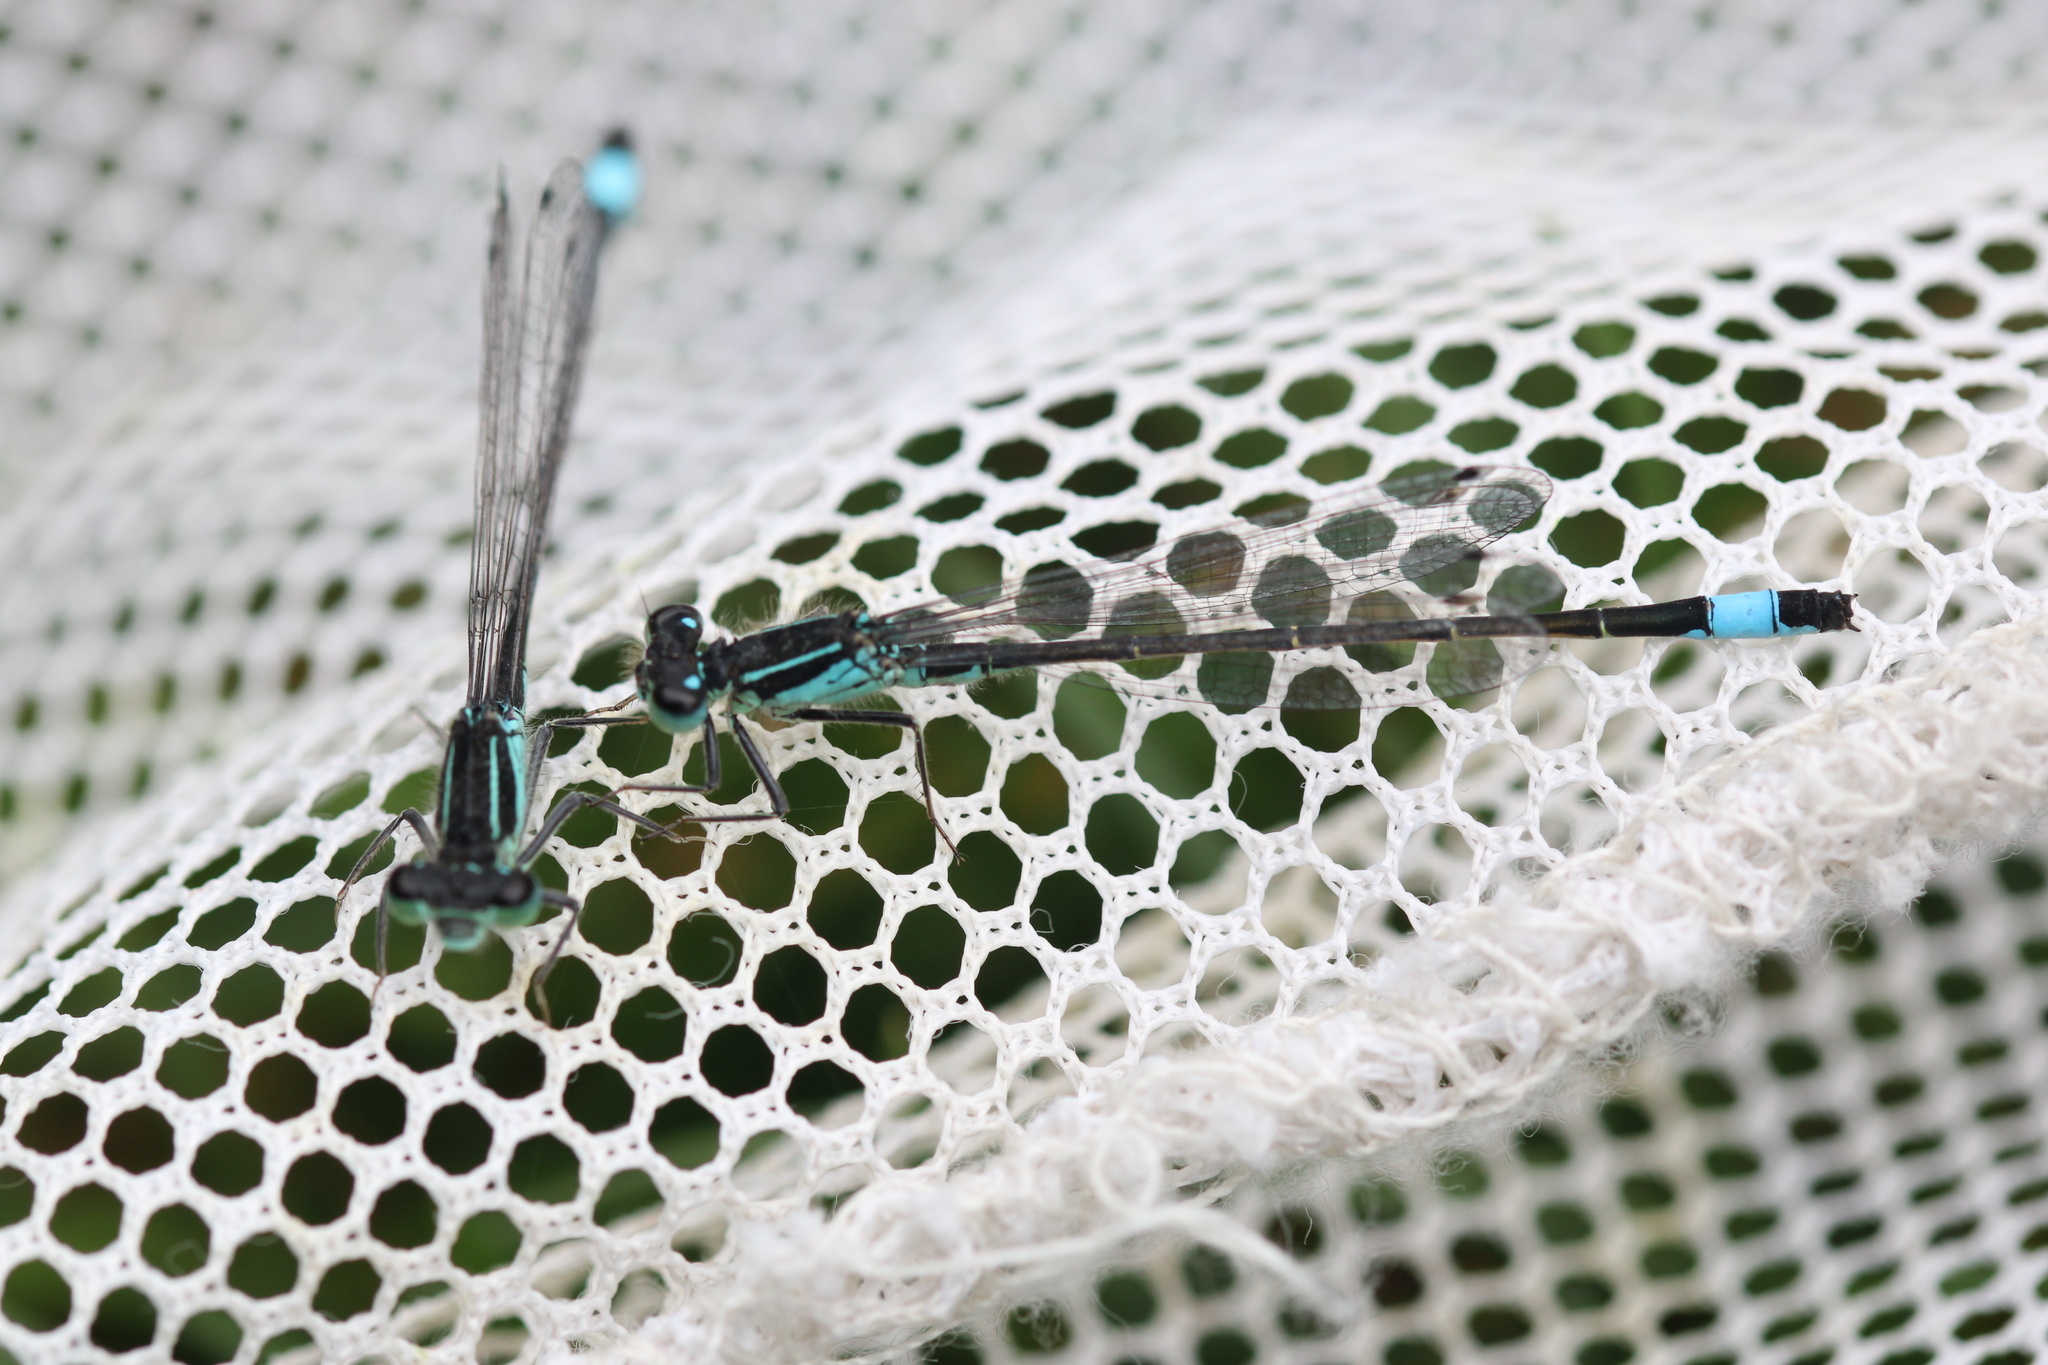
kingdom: Animalia
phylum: Arthropoda
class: Insecta
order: Odonata
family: Coenagrionidae
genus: Ischnura
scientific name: Ischnura elegans
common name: Blue-tailed damselfly
